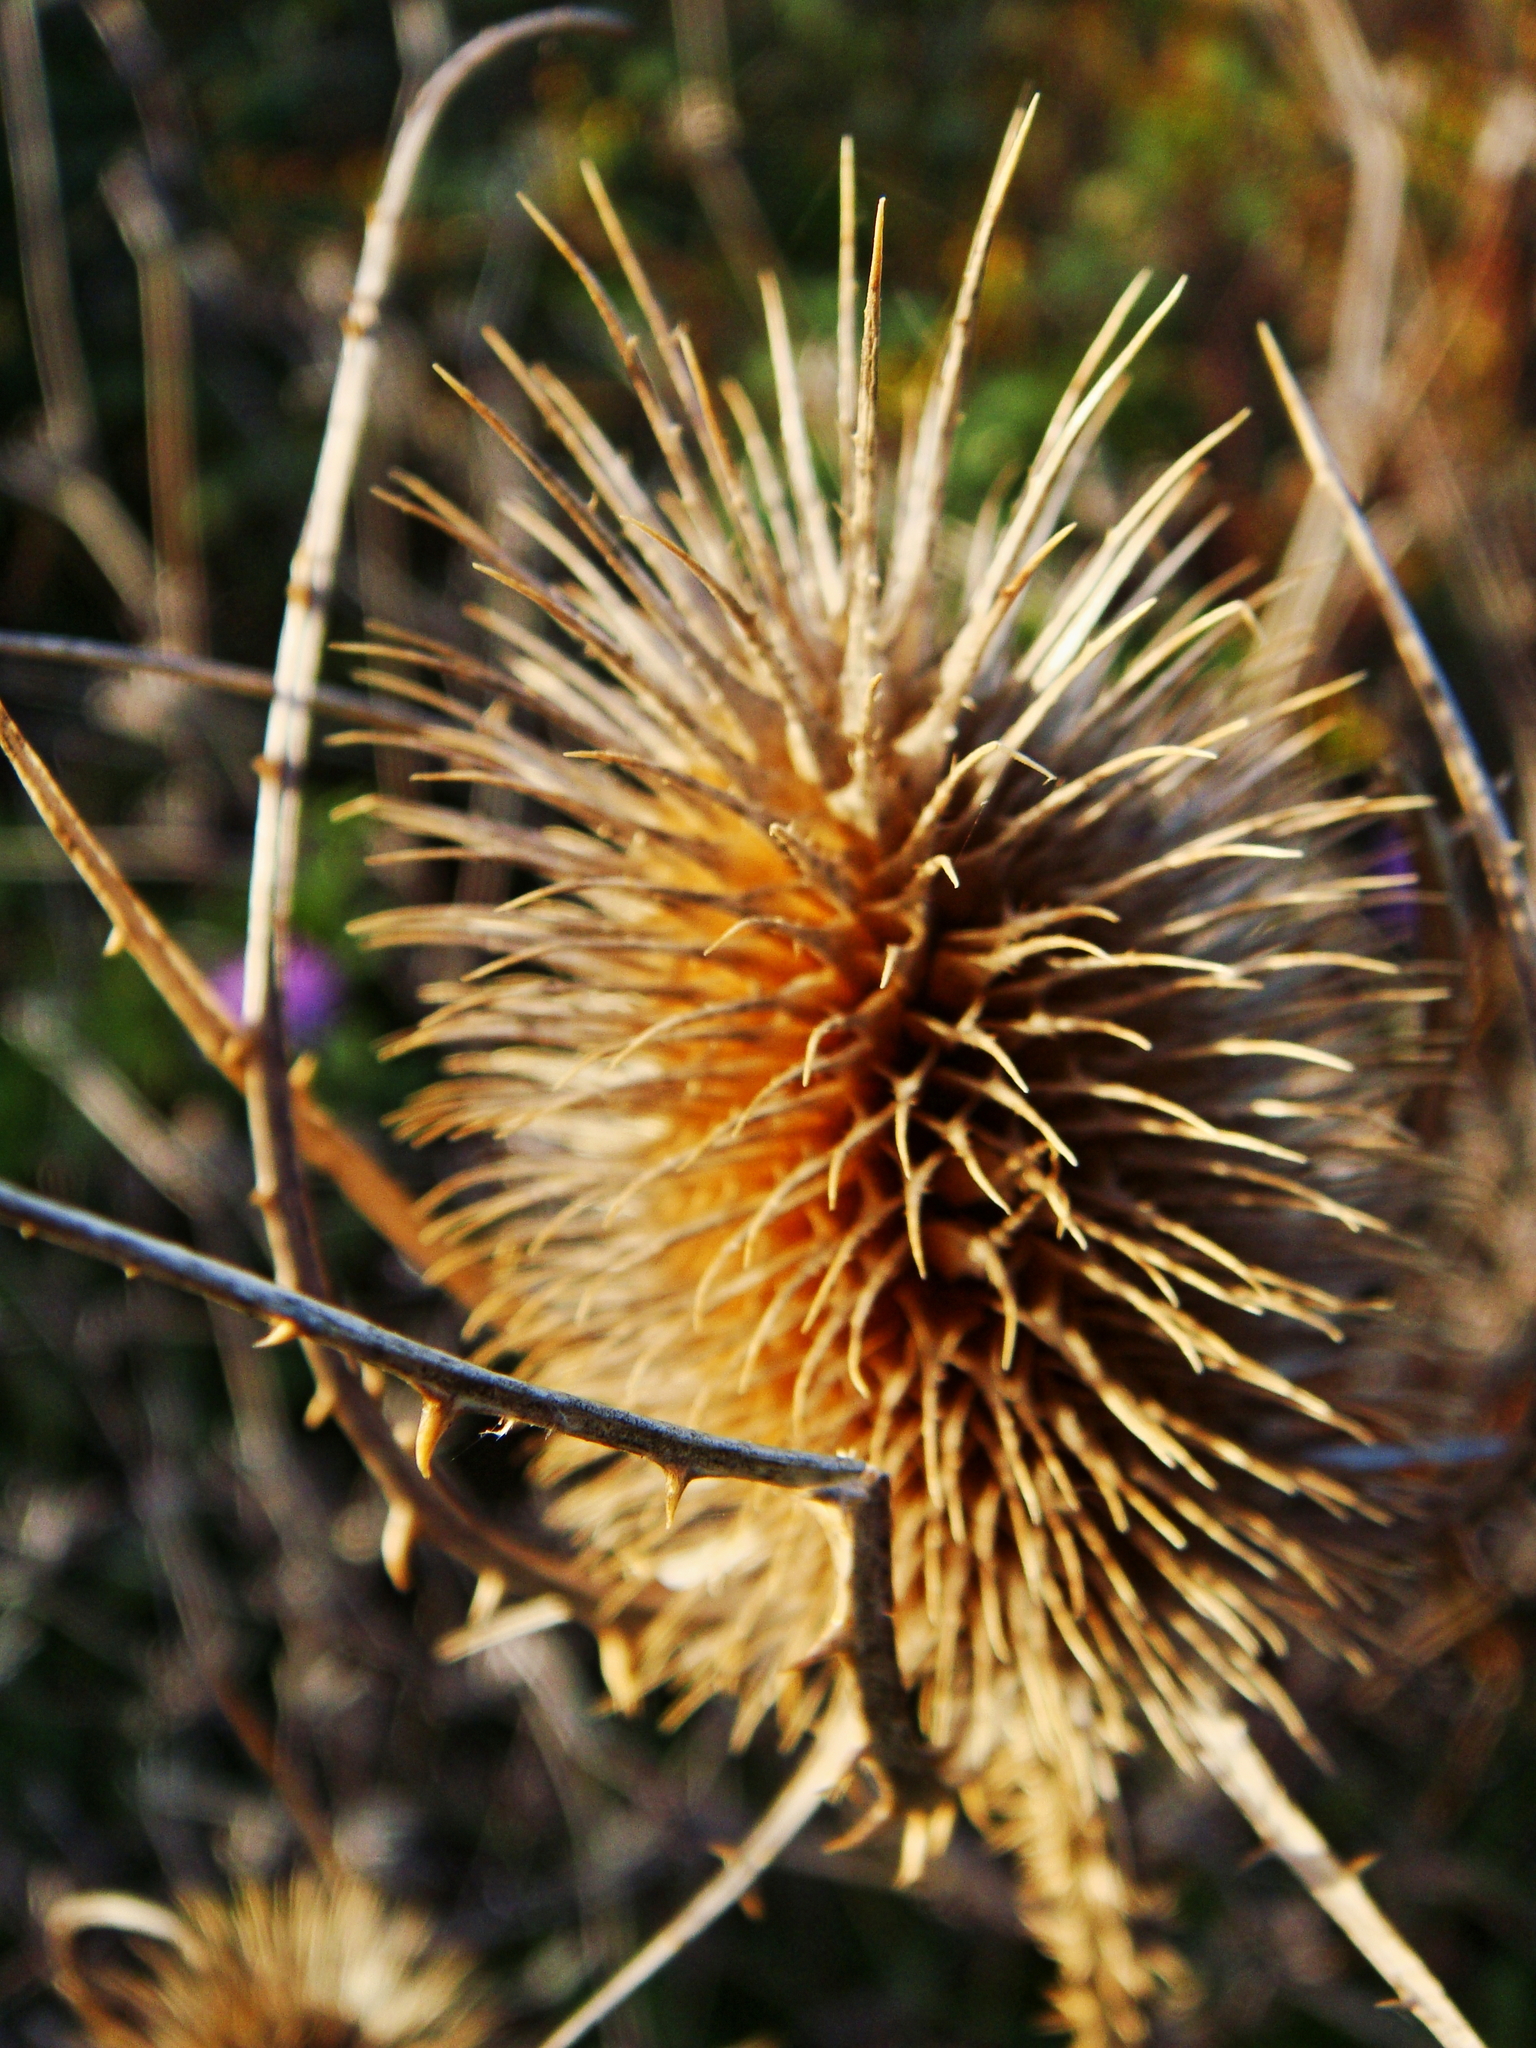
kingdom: Plantae
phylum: Tracheophyta
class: Magnoliopsida
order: Dipsacales
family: Caprifoliaceae
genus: Dipsacus
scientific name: Dipsacus fullonum
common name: Teasel
